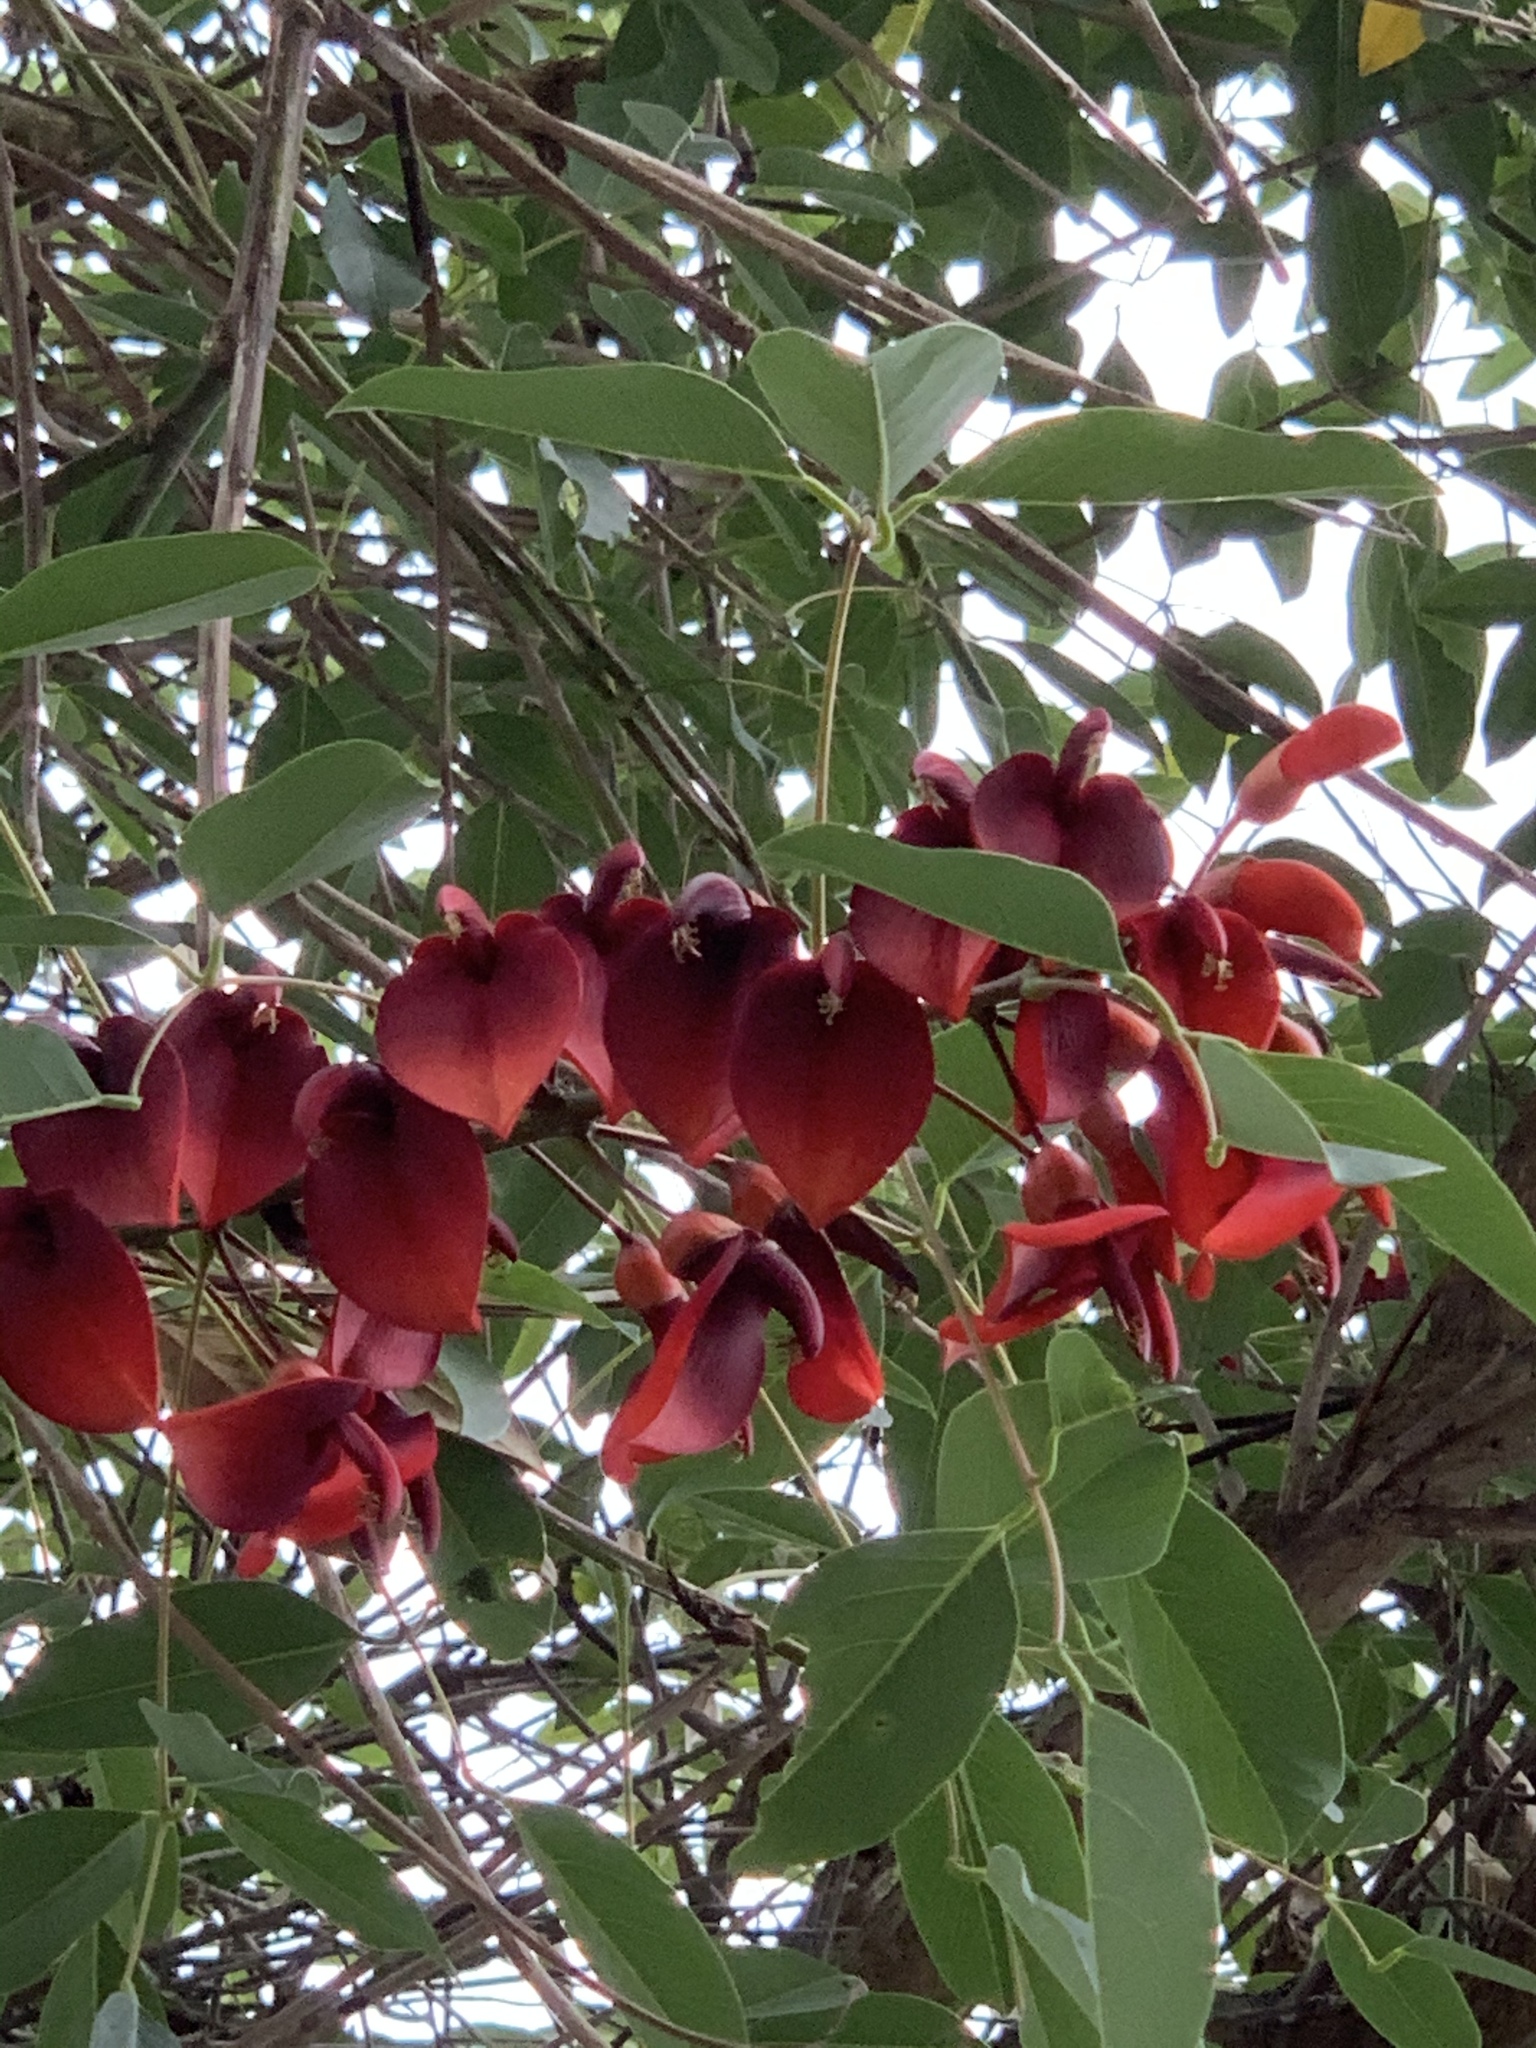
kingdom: Plantae
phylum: Tracheophyta
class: Magnoliopsida
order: Fabales
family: Fabaceae
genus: Erythrina
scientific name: Erythrina crista-galli
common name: Cockspur coral tree
